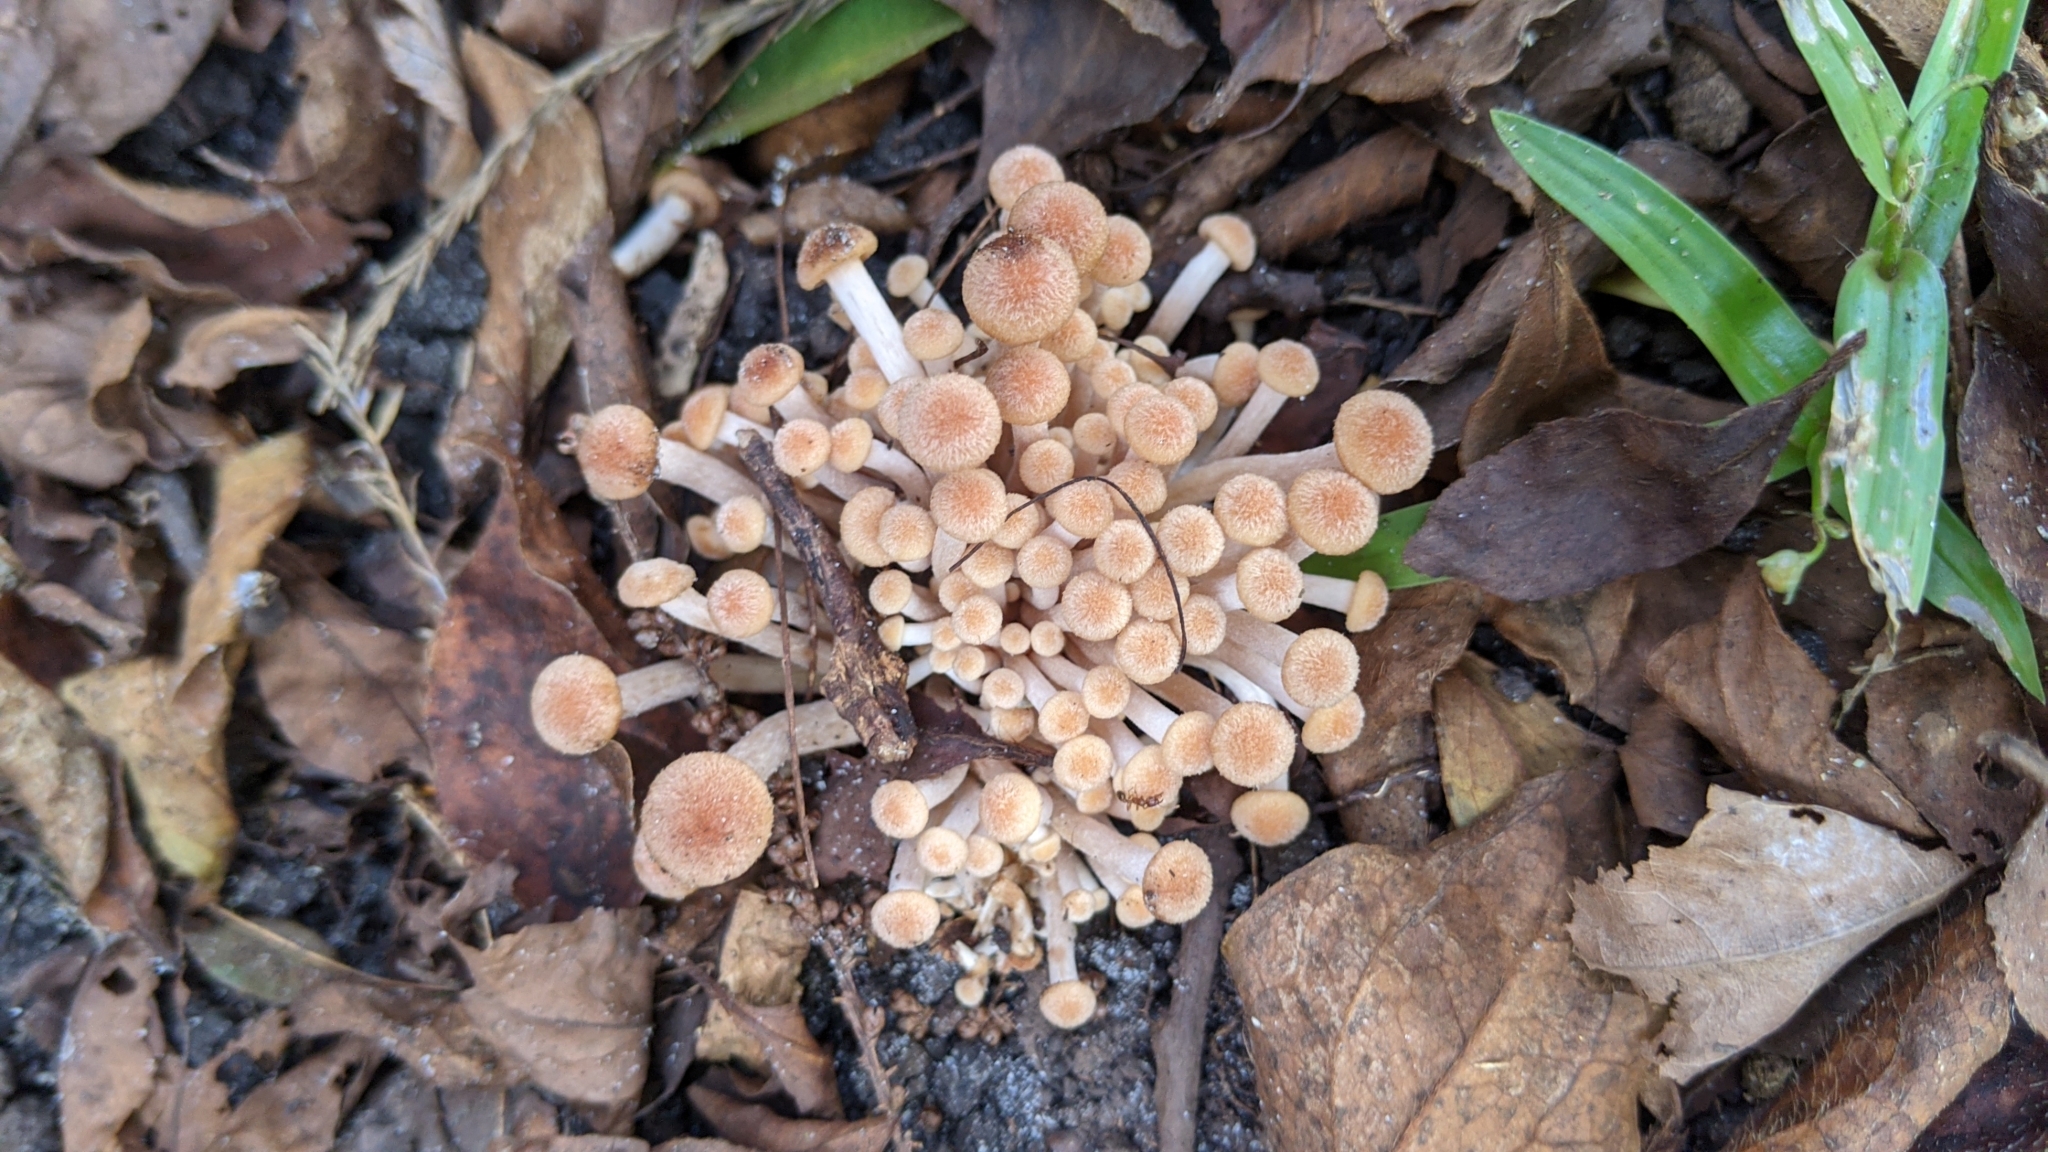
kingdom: Fungi
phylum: Basidiomycota
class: Agaricomycetes
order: Agaricales
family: Physalacriaceae
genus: Desarmillaria
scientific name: Desarmillaria caespitosa
